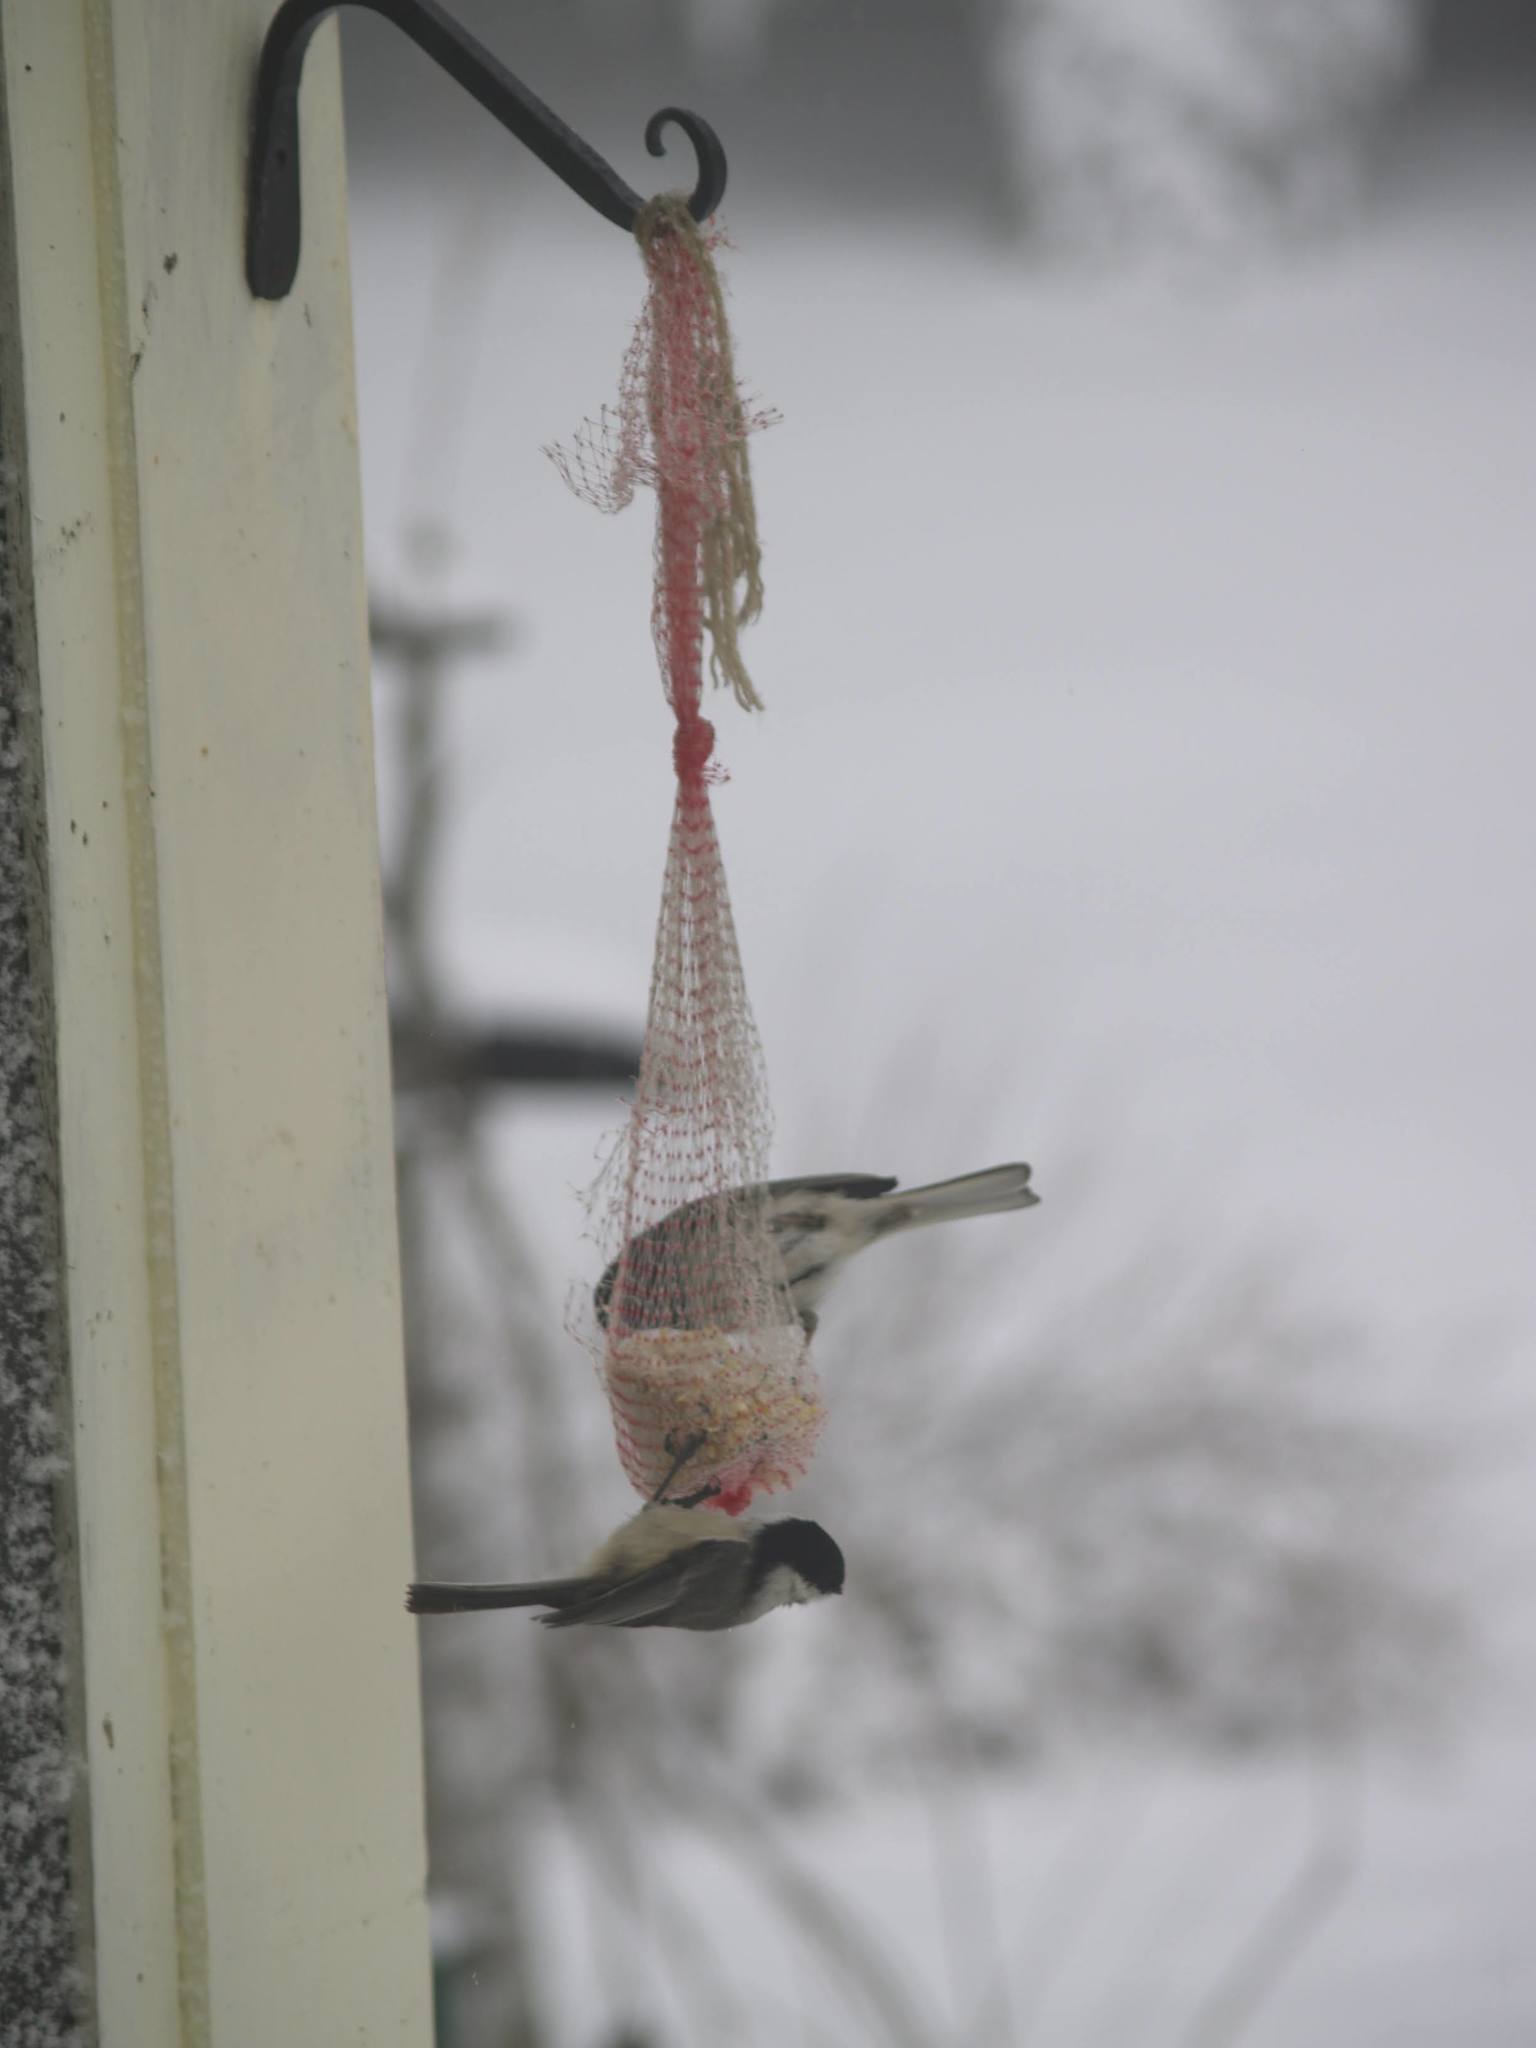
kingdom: Animalia
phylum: Chordata
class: Aves
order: Passeriformes
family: Paridae
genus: Poecile
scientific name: Poecile atricapillus
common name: Black-capped chickadee
